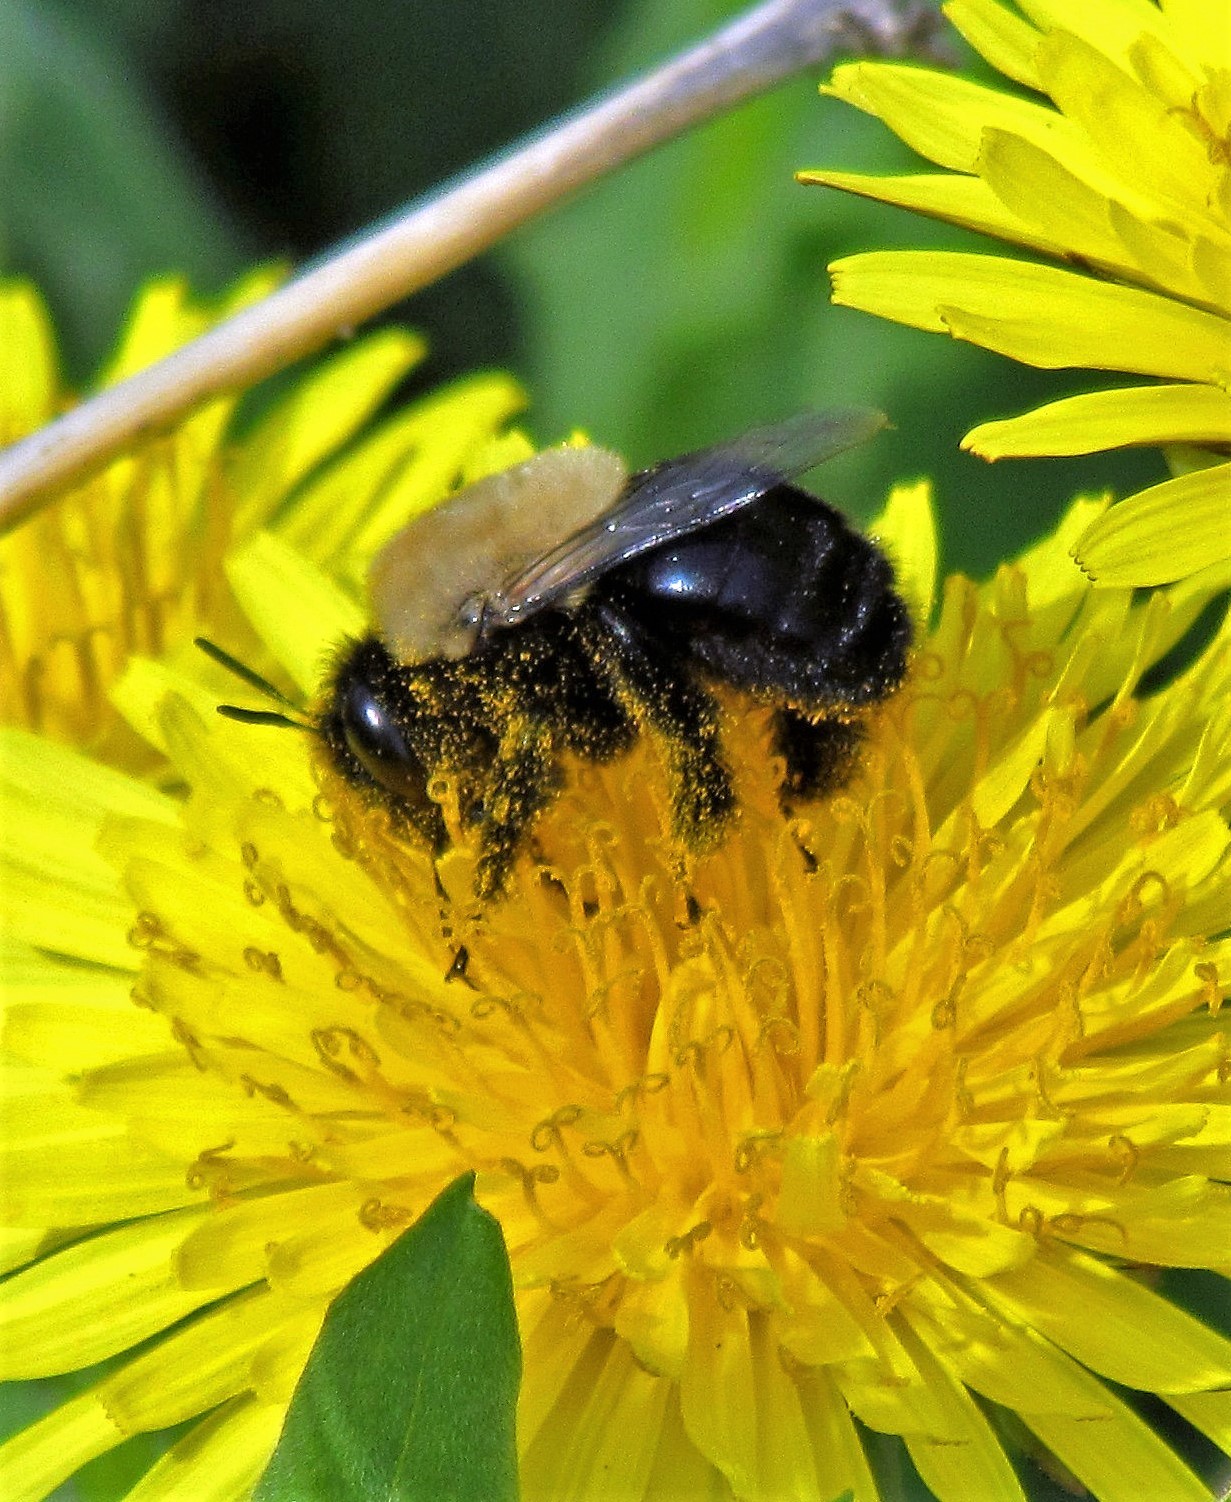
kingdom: Animalia
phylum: Arthropoda
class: Insecta
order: Hymenoptera
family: Apidae
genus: Centris
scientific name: Centris cineraria
